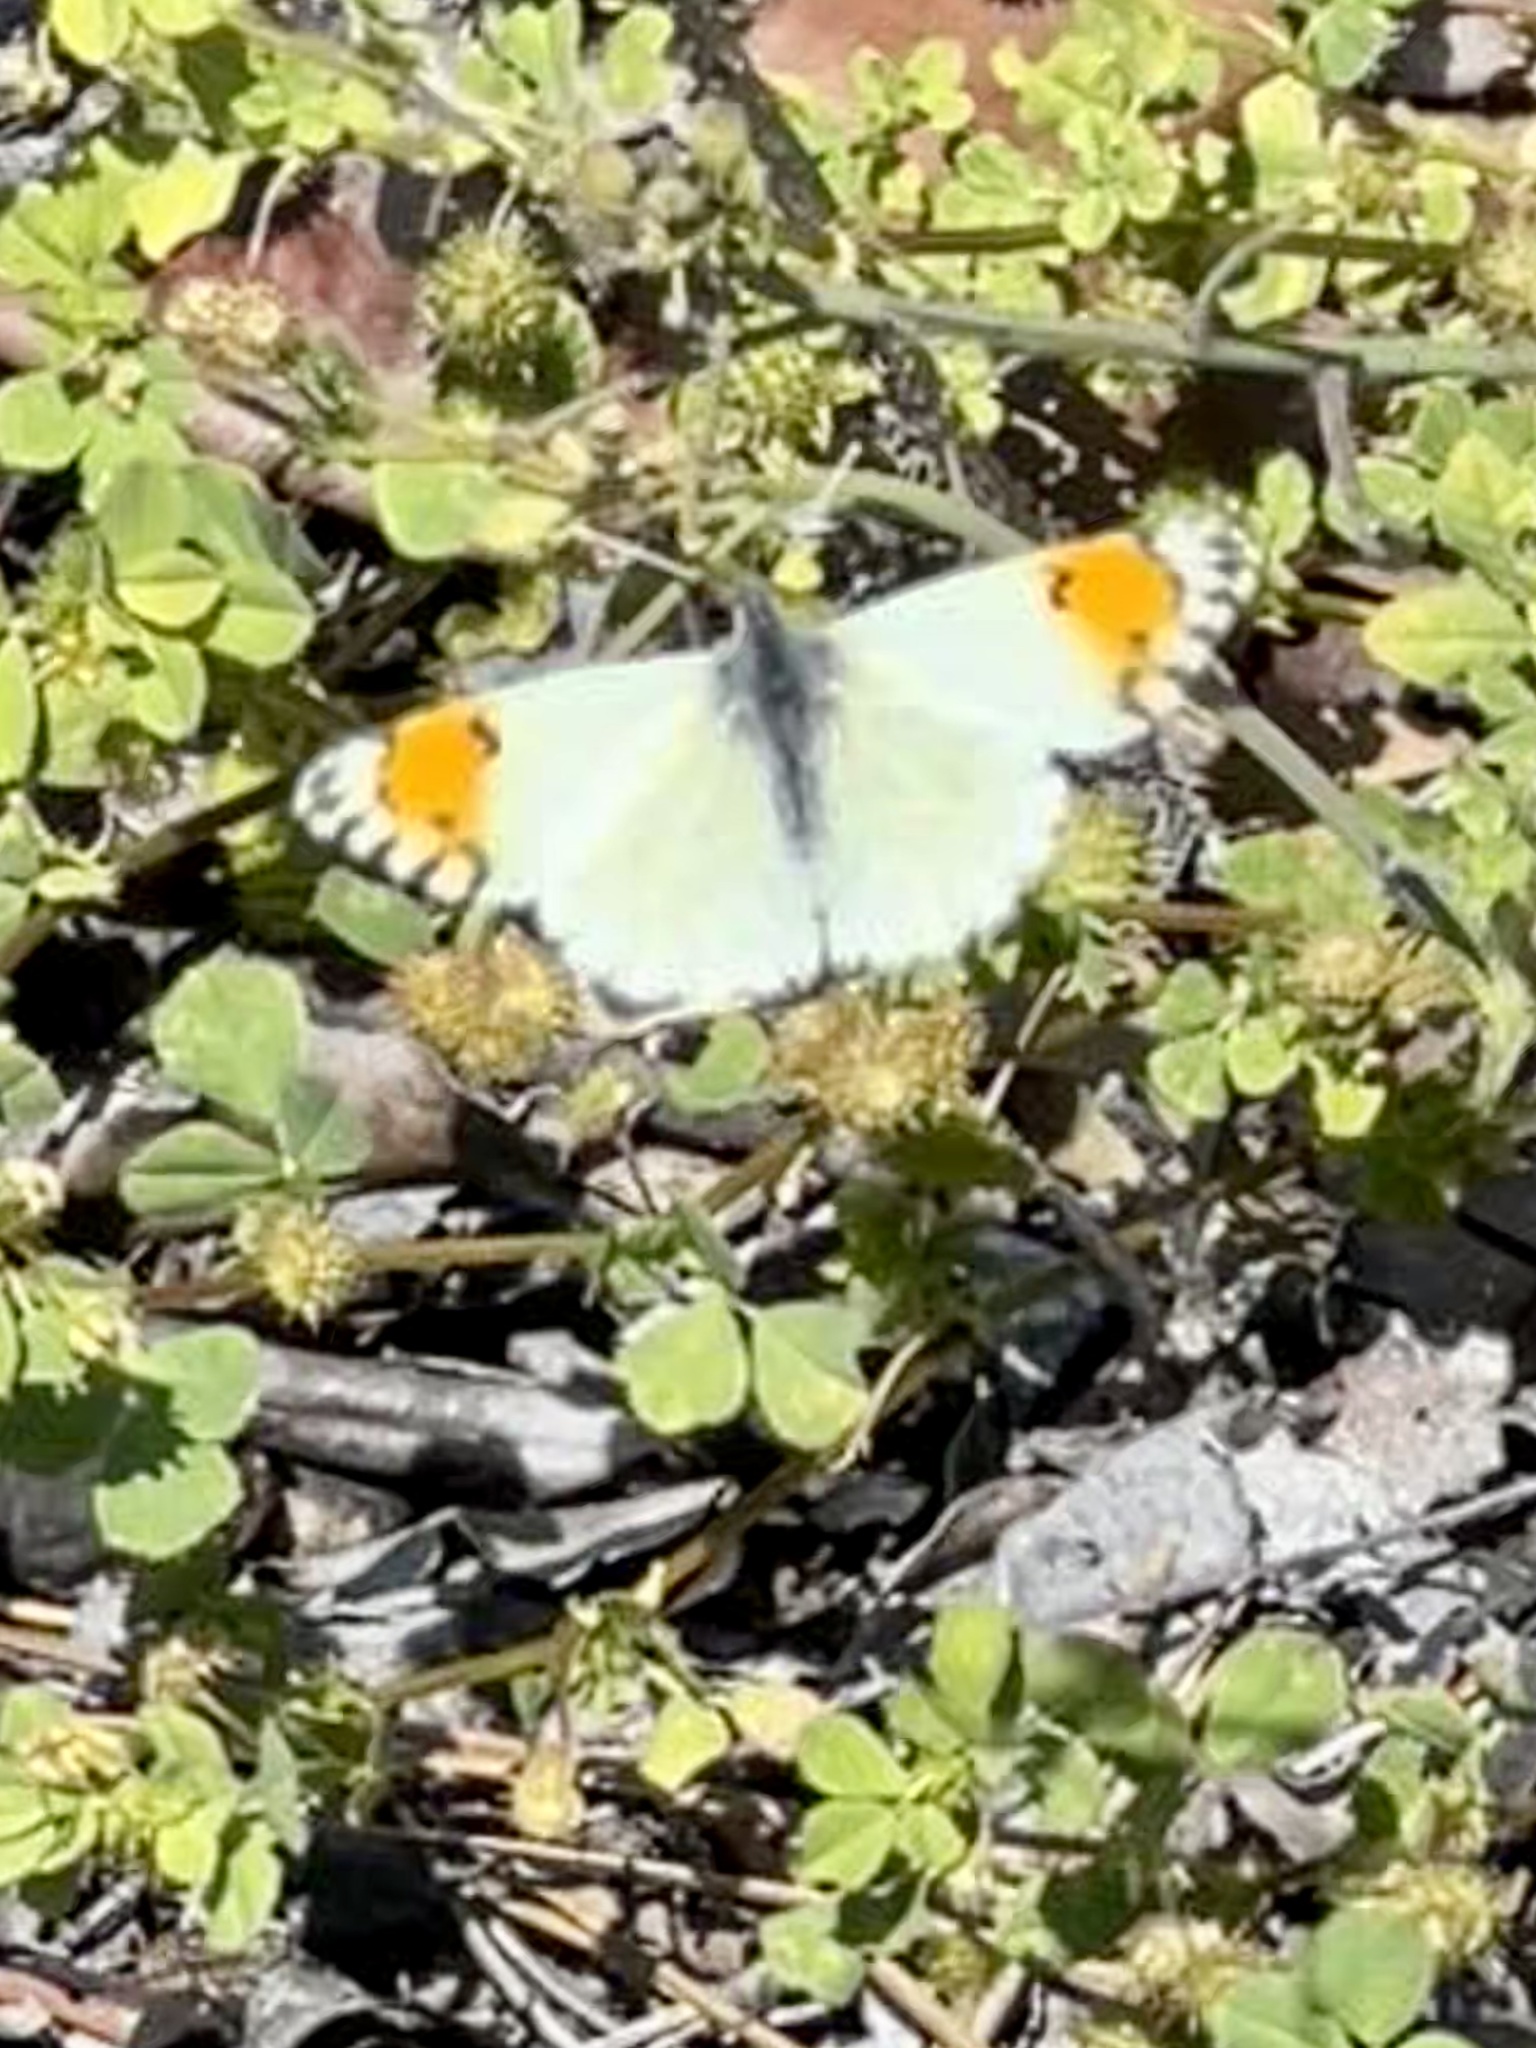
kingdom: Animalia
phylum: Arthropoda
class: Insecta
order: Lepidoptera
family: Pieridae
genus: Anthocharis
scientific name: Anthocharis sara
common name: Sara's orangetip
